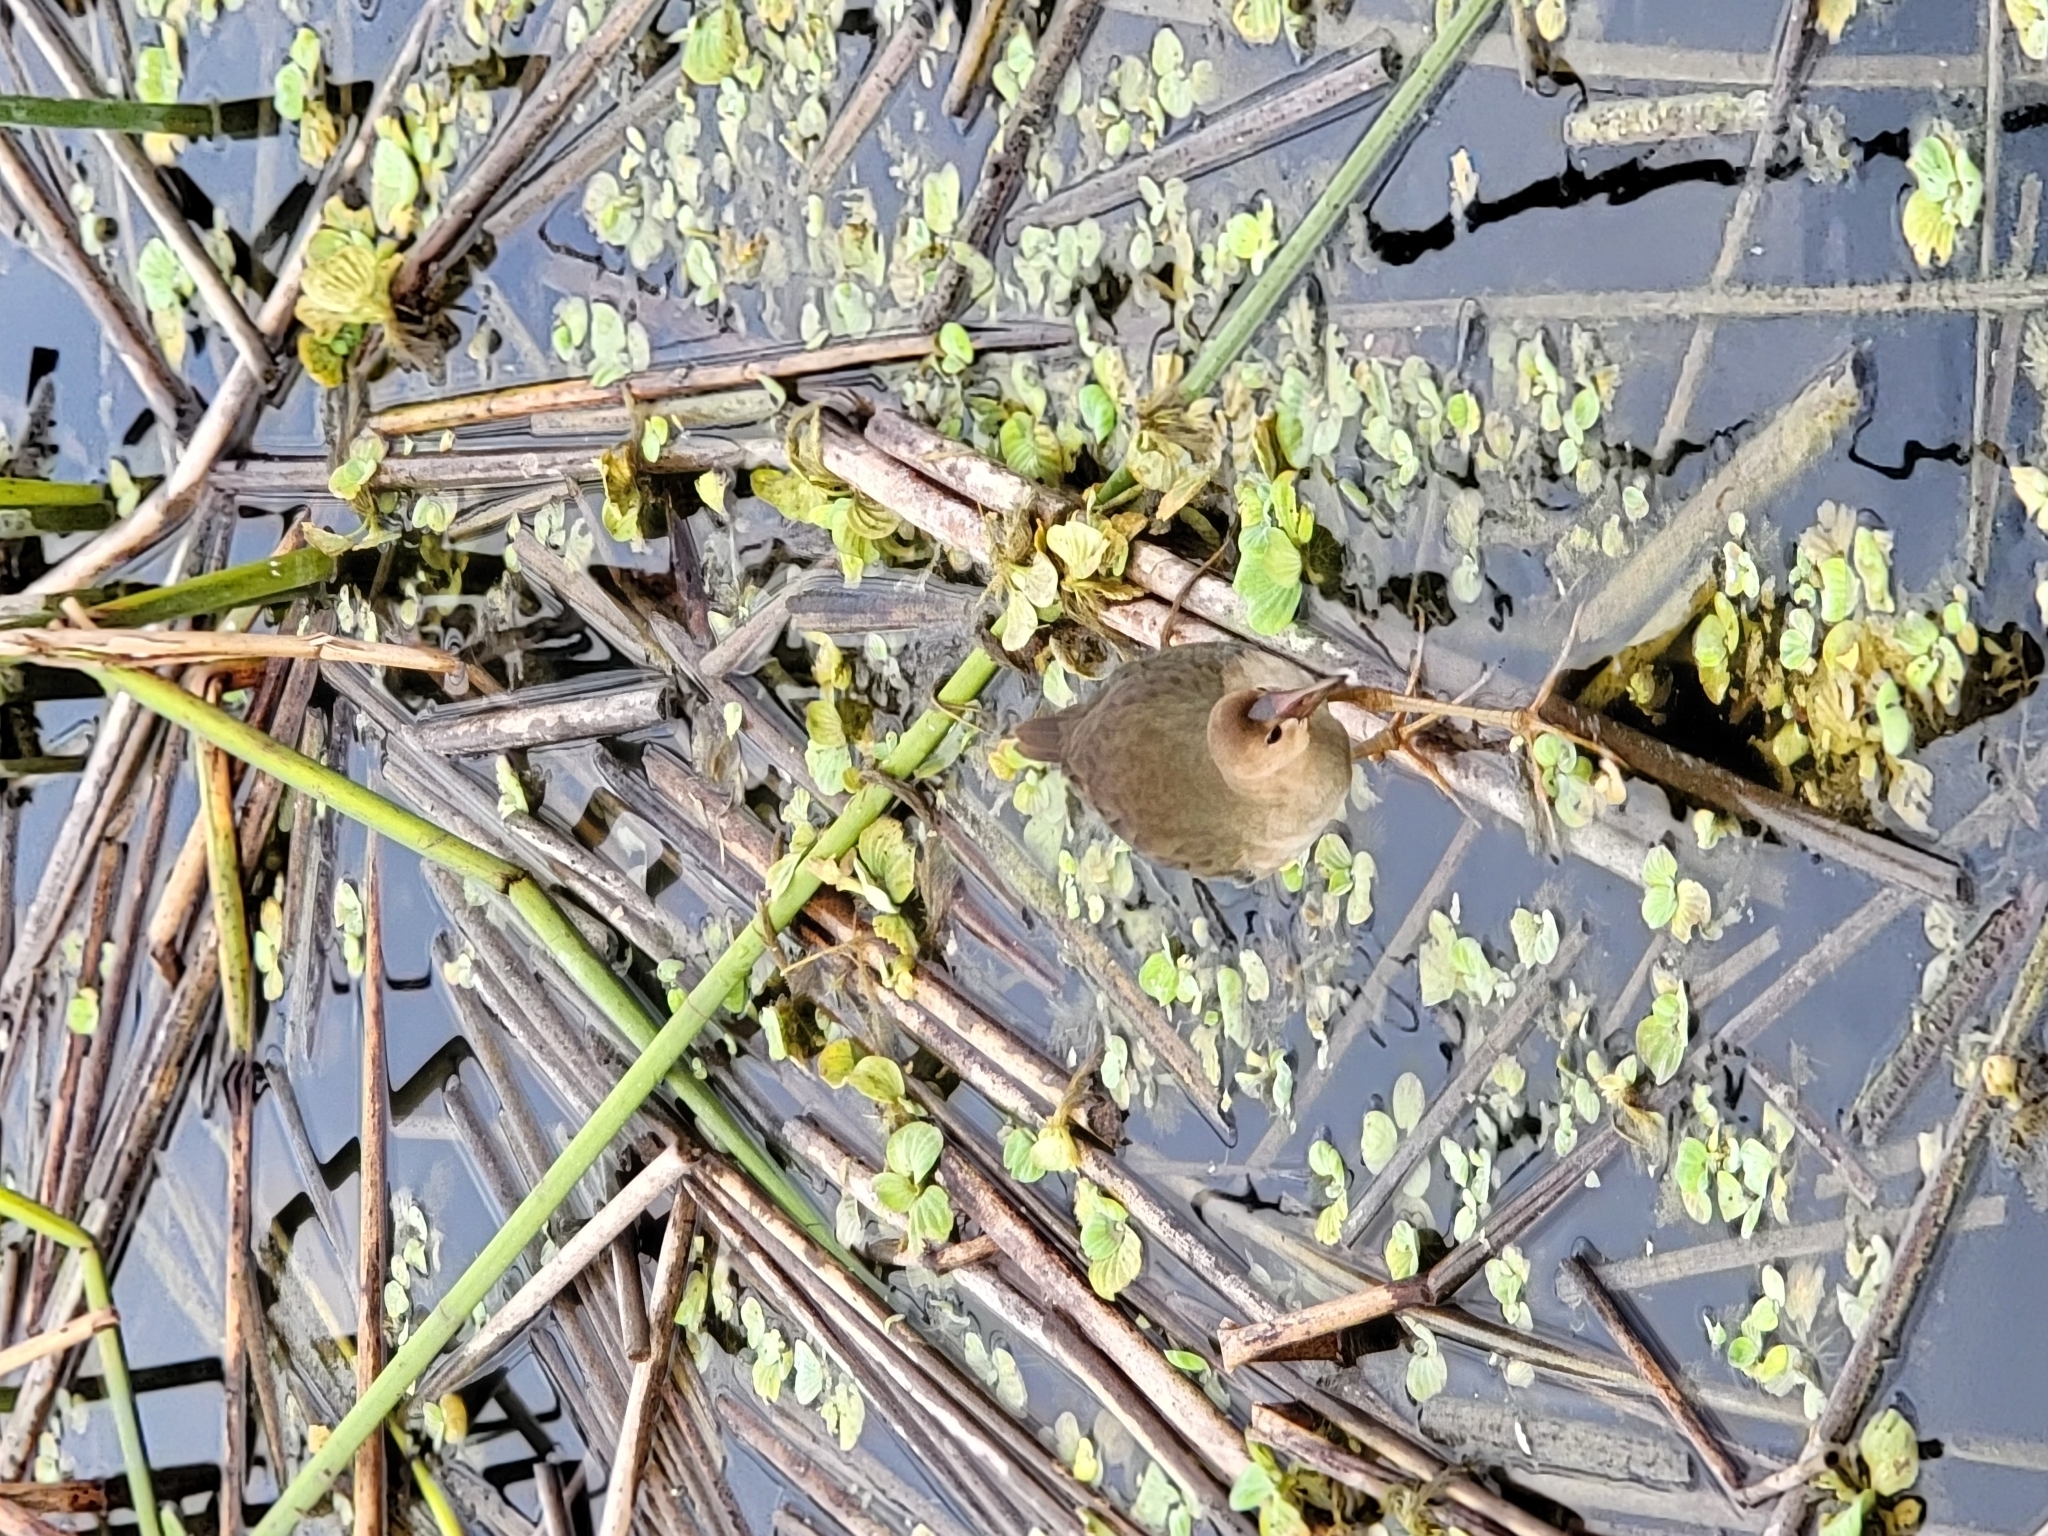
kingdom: Animalia
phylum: Chordata
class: Aves
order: Gruiformes
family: Rallidae
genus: Porphyrio
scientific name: Porphyrio martinica
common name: Purple gallinule
